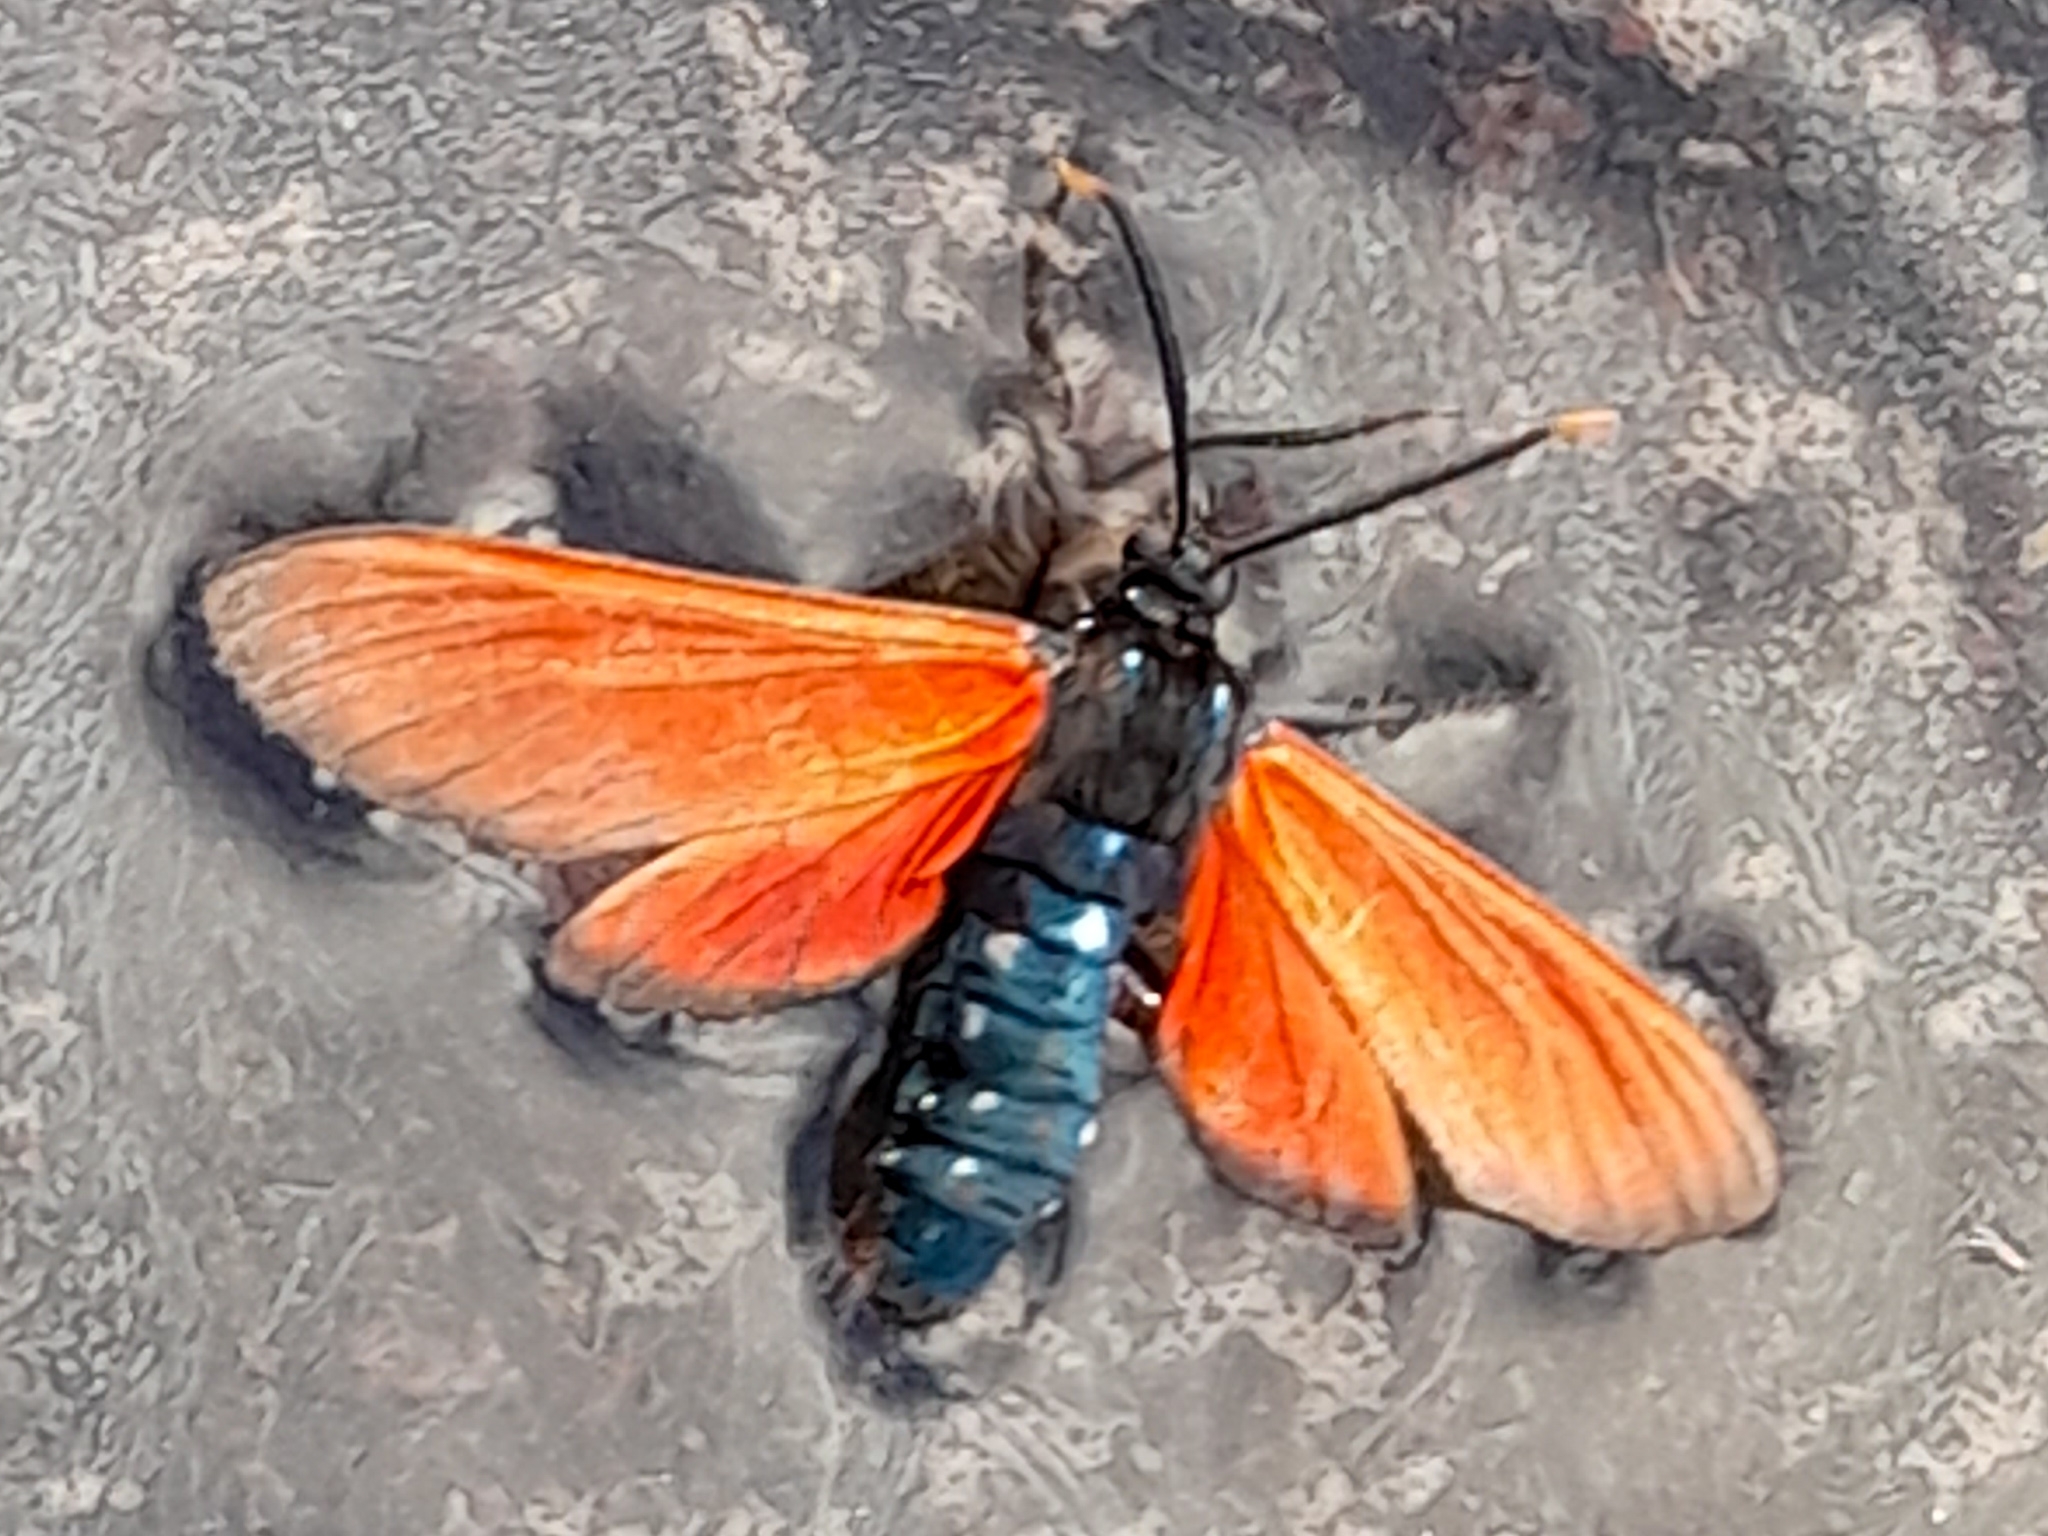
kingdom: Animalia
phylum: Arthropoda
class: Insecta
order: Lepidoptera
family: Erebidae
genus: Empyreuma
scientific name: Empyreuma pugione
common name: Spotted oleander caterpillar moth
